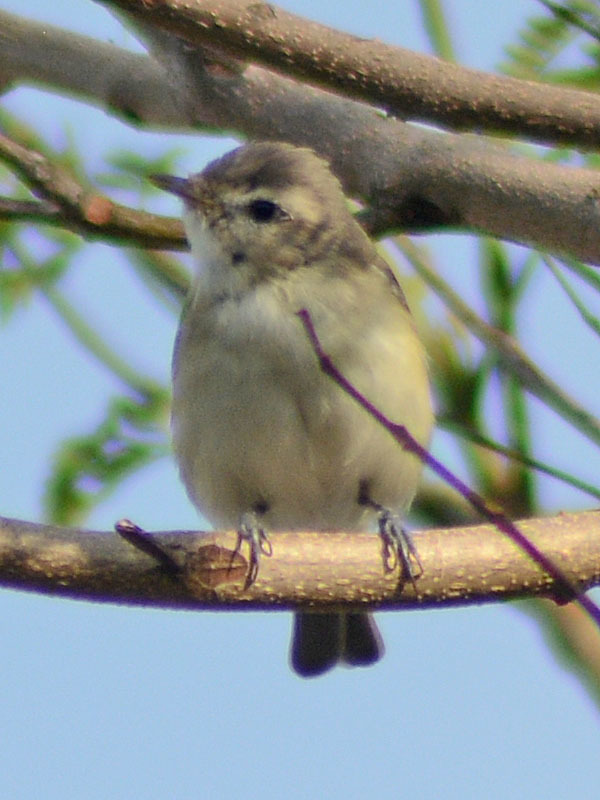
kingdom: Animalia
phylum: Chordata
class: Aves
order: Passeriformes
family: Vireonidae
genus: Vireo
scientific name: Vireo gilvus
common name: Warbling vireo
